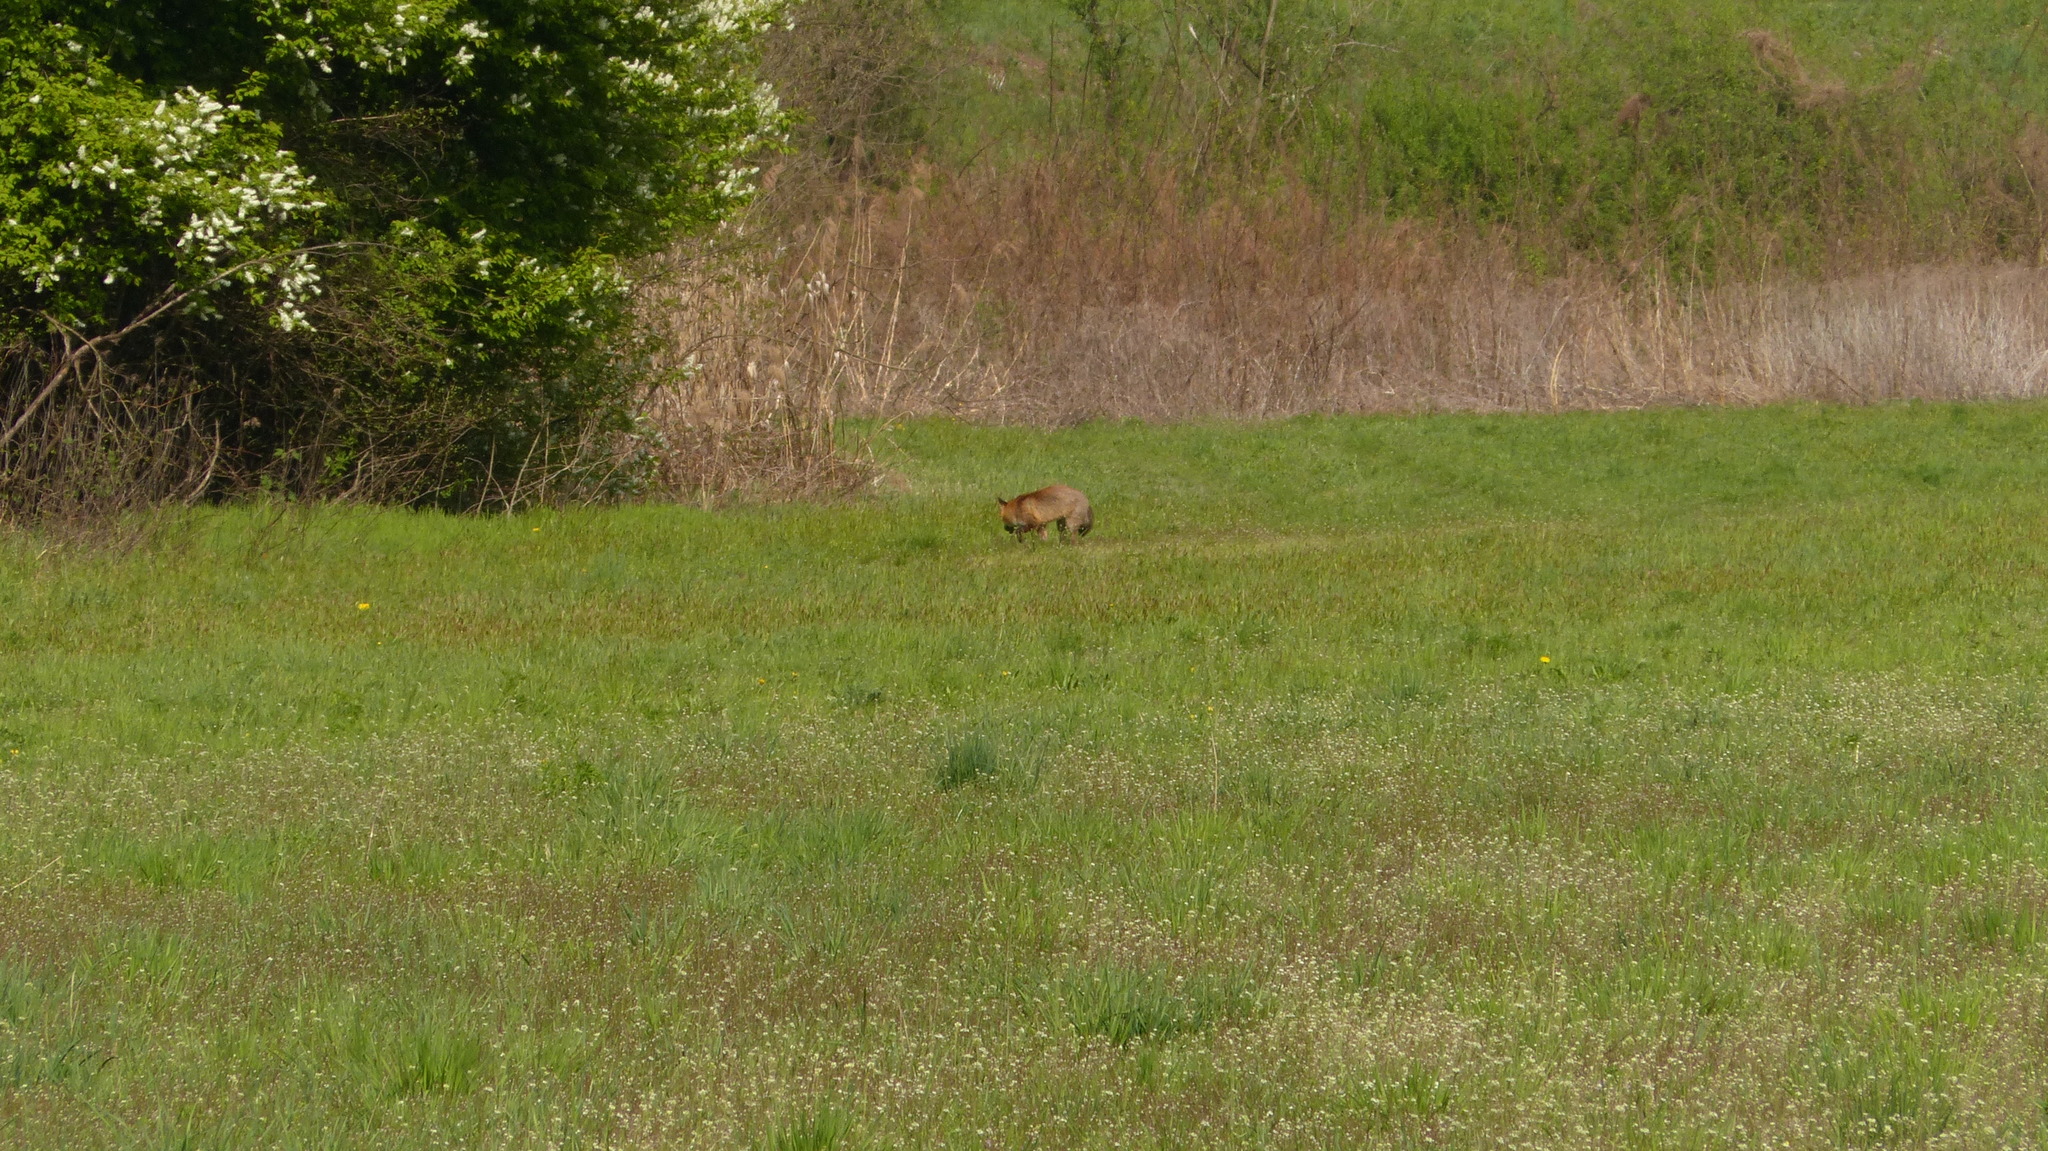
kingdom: Animalia
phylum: Chordata
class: Mammalia
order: Carnivora
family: Canidae
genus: Vulpes
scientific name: Vulpes vulpes
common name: Red fox
